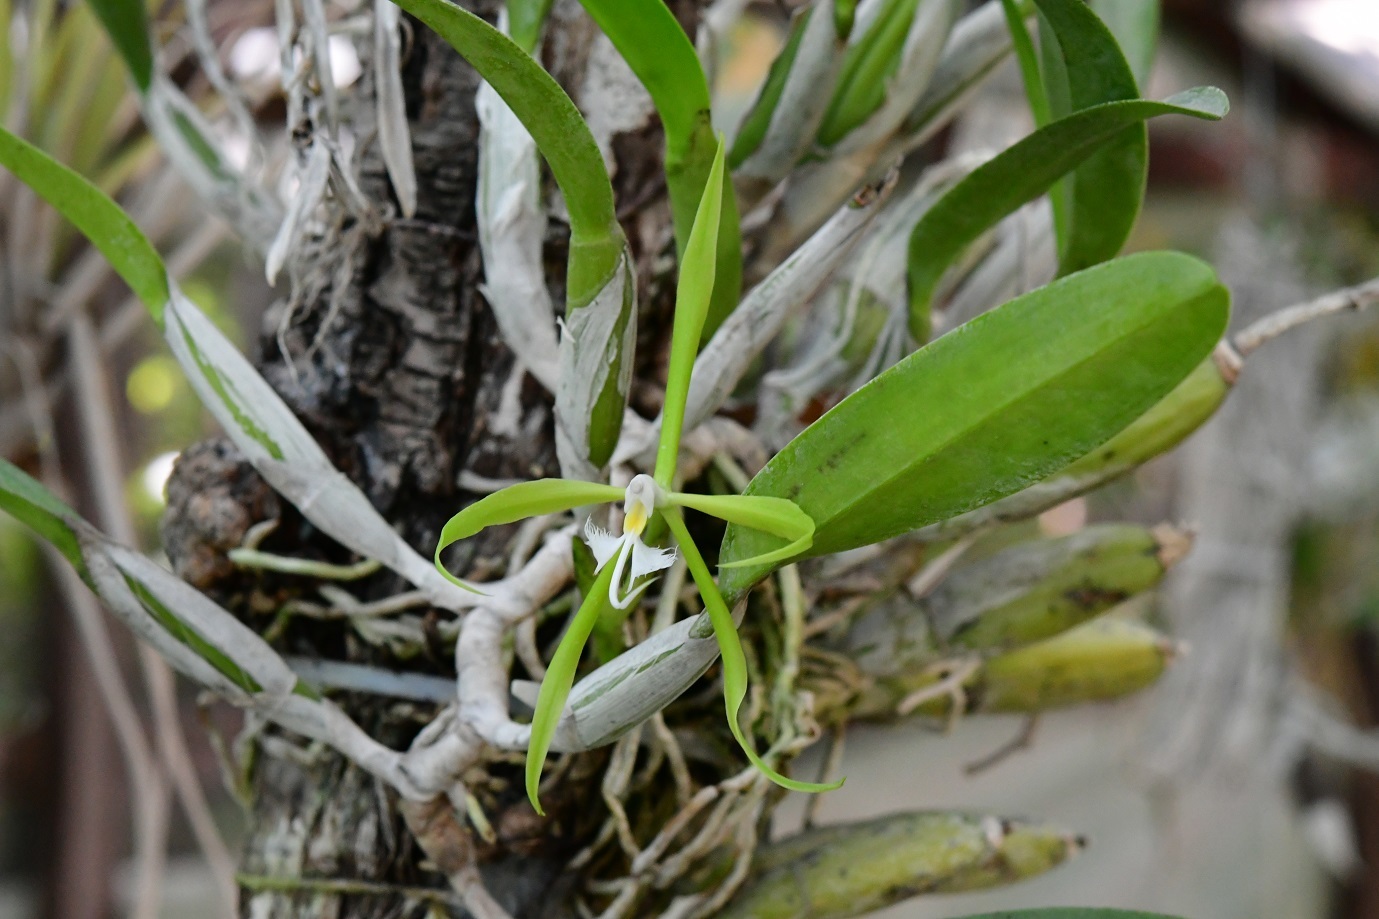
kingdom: Plantae
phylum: Tracheophyta
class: Liliopsida
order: Asparagales
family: Orchidaceae
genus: Epidendrum
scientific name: Epidendrum ciliare
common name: Eyelash orchid
